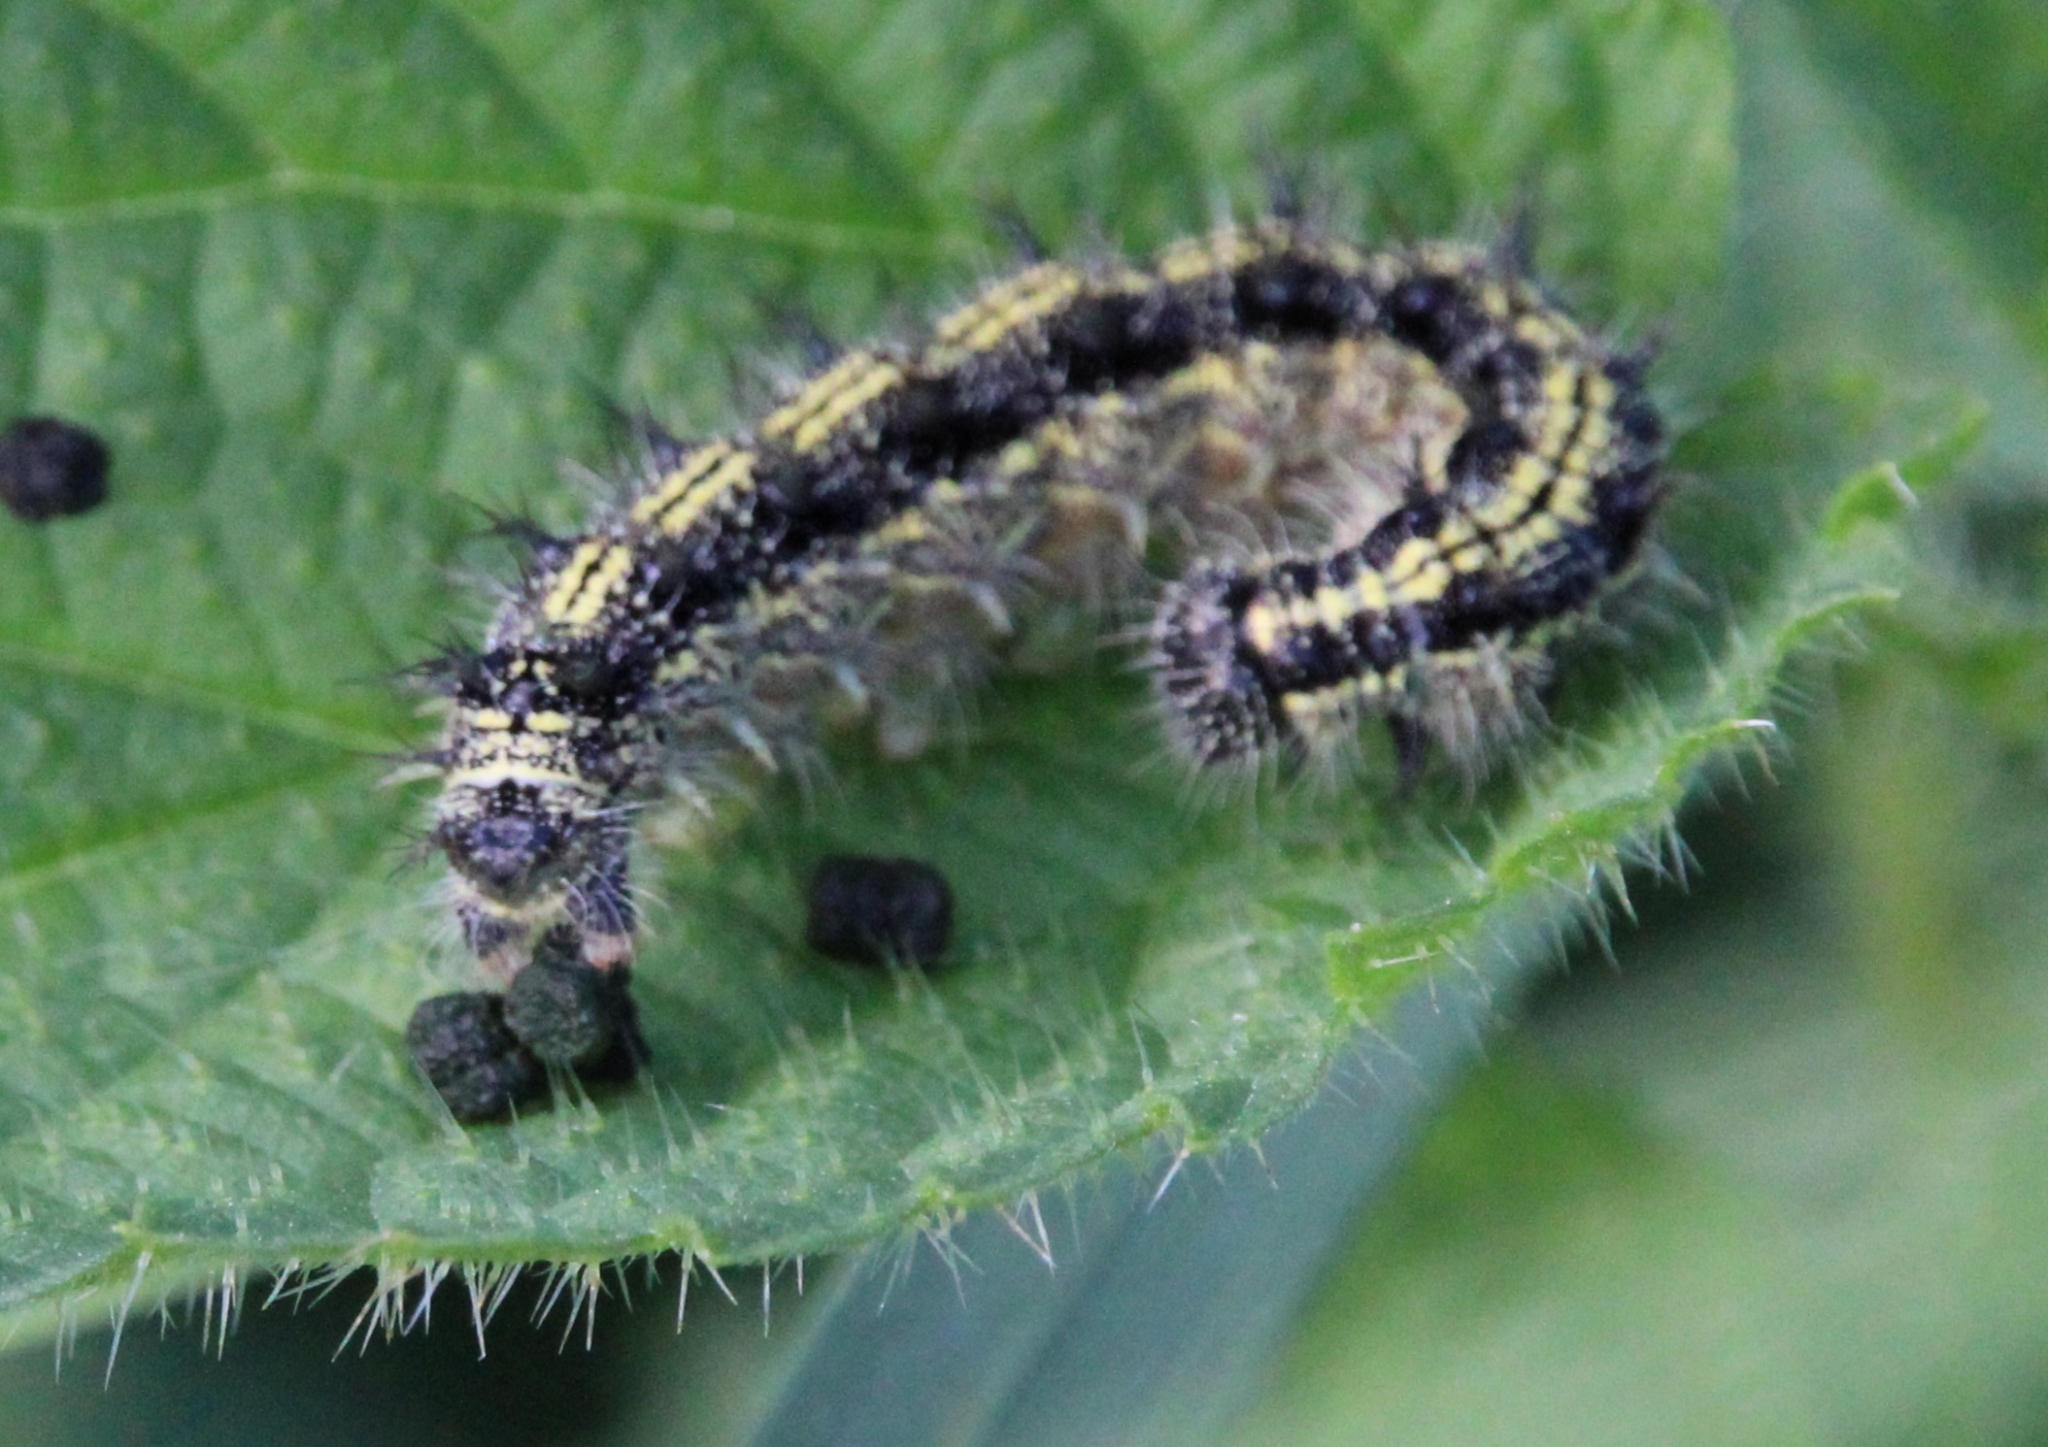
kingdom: Animalia
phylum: Arthropoda
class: Insecta
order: Lepidoptera
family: Nymphalidae
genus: Aglais
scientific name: Aglais urticae
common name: Small tortoiseshell
